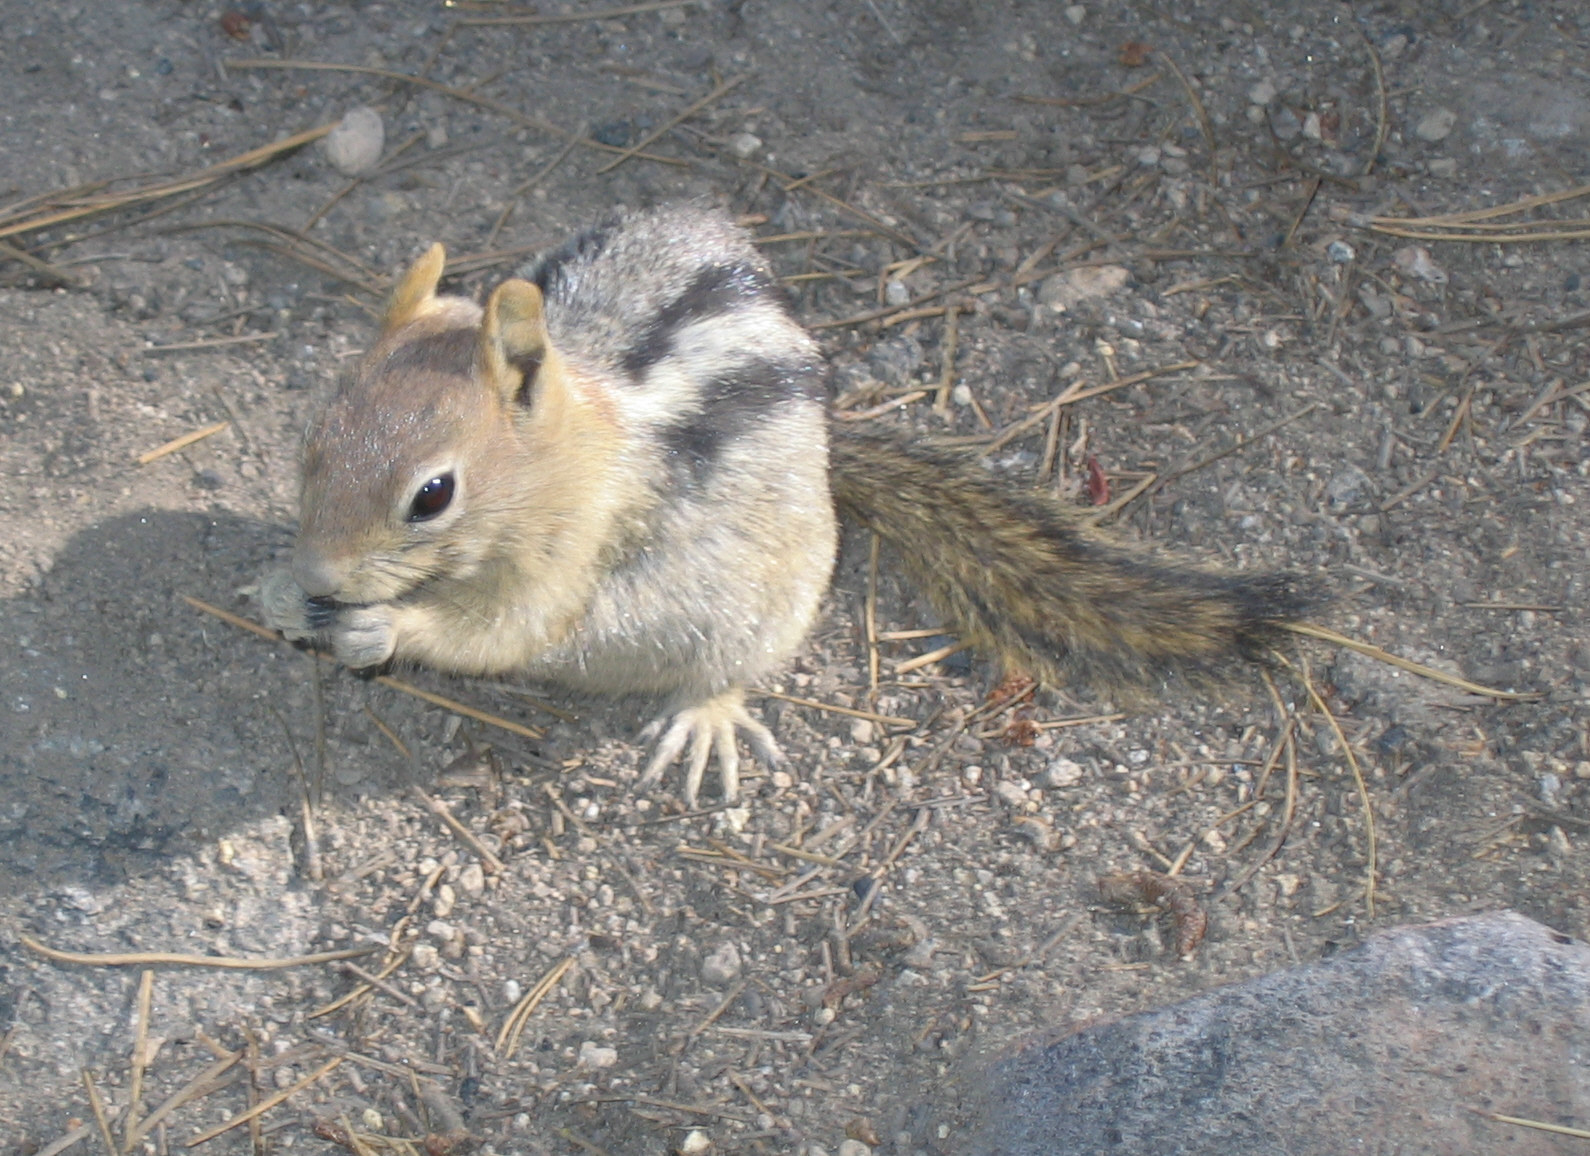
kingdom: Animalia
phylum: Chordata
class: Mammalia
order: Rodentia
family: Sciuridae
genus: Callospermophilus
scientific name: Callospermophilus lateralis
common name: Golden-mantled ground squirrel
